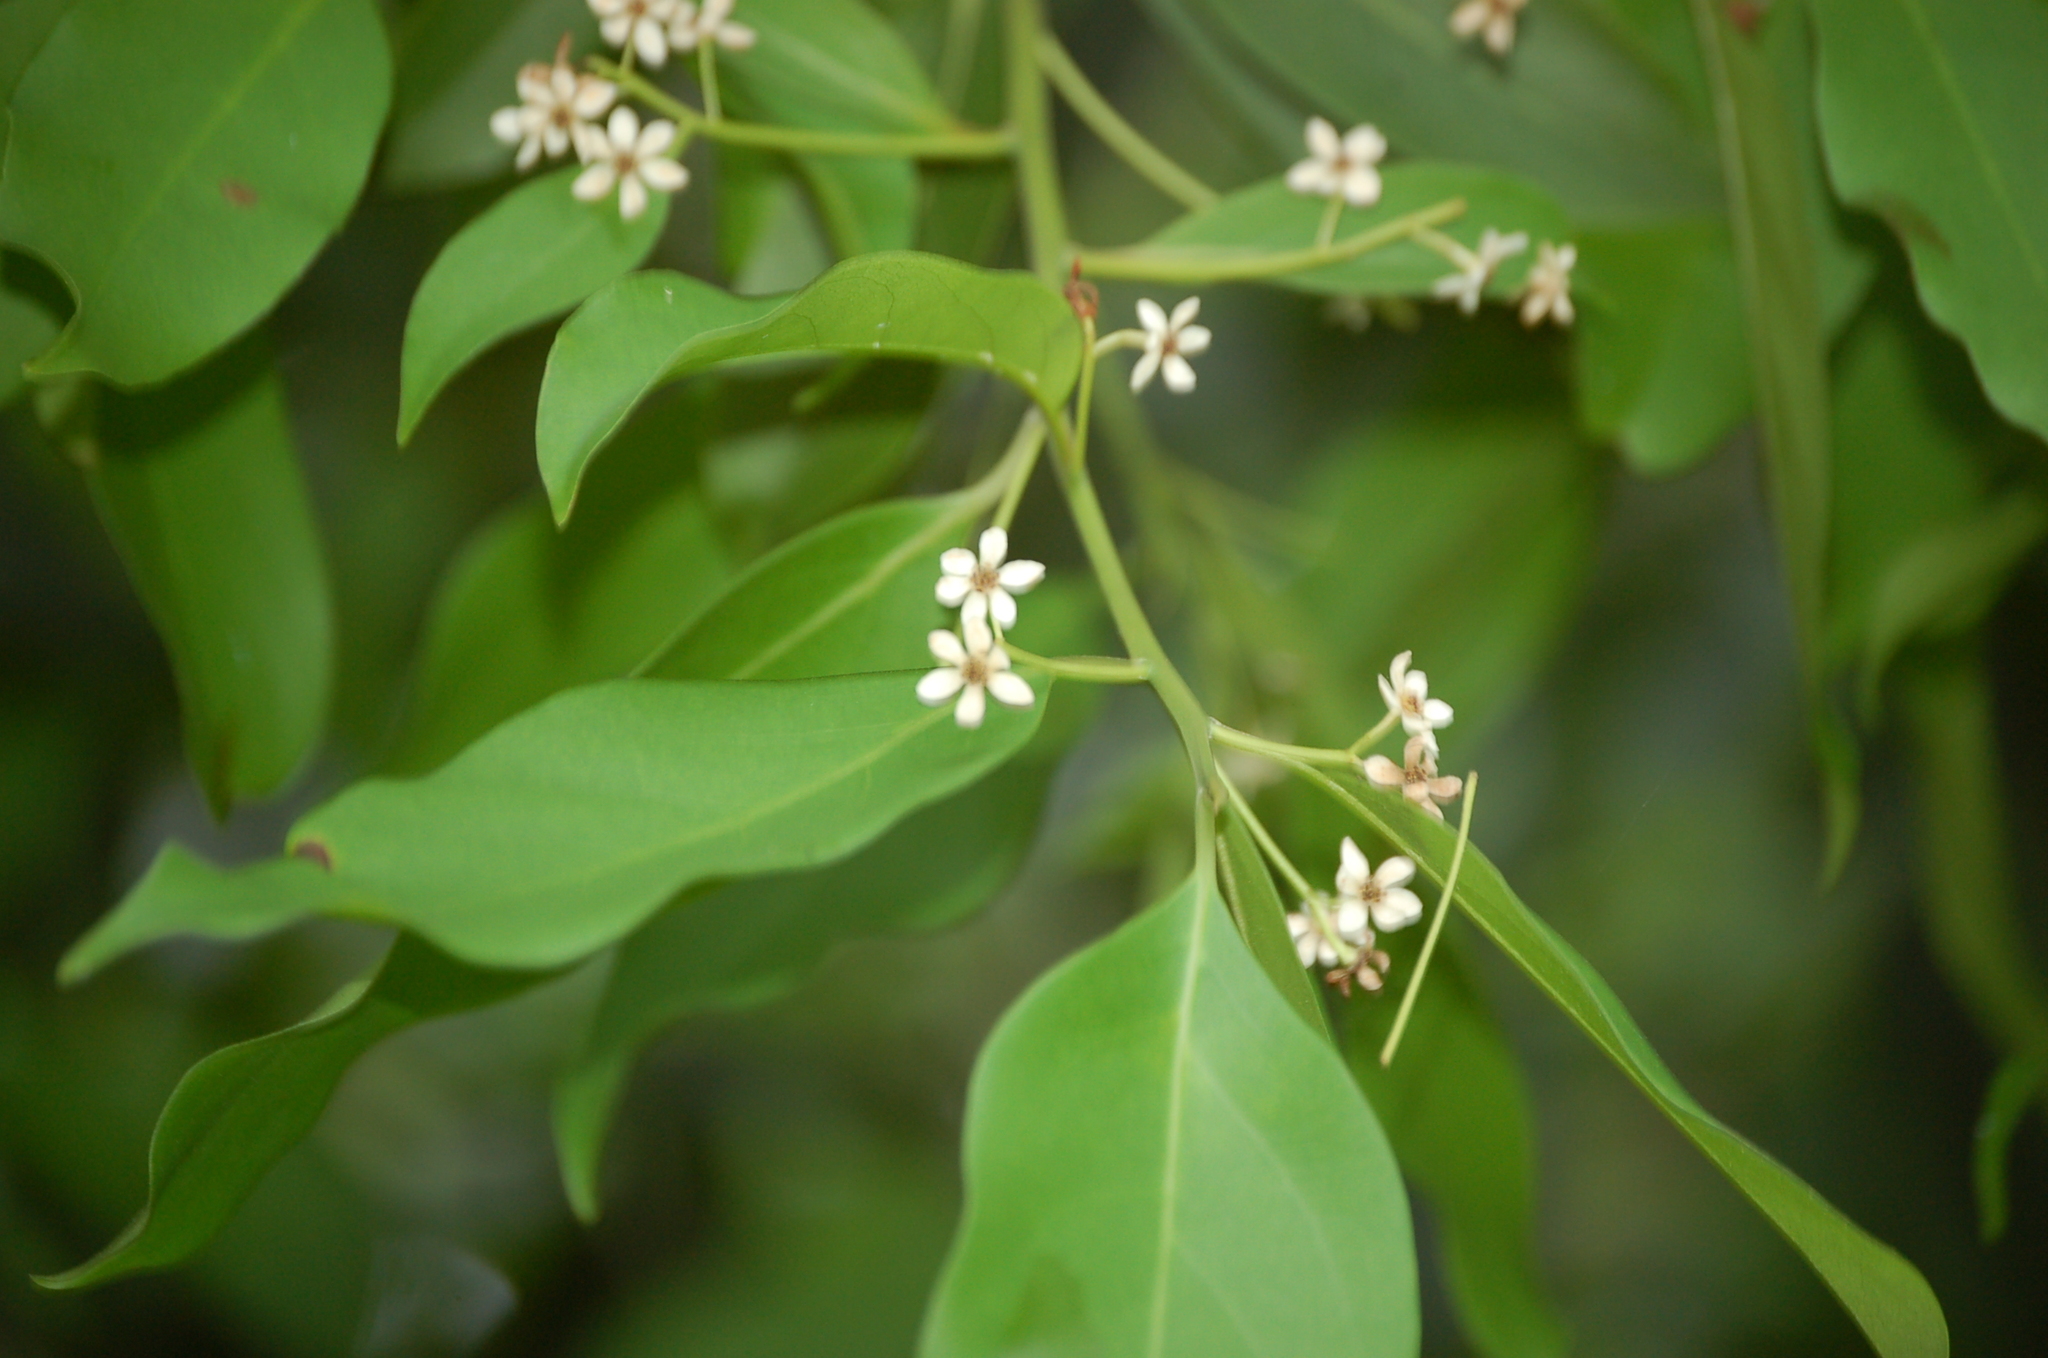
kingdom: Plantae
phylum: Tracheophyta
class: Magnoliopsida
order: Laurales
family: Lauraceae
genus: Nectandra
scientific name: Nectandra hihua
